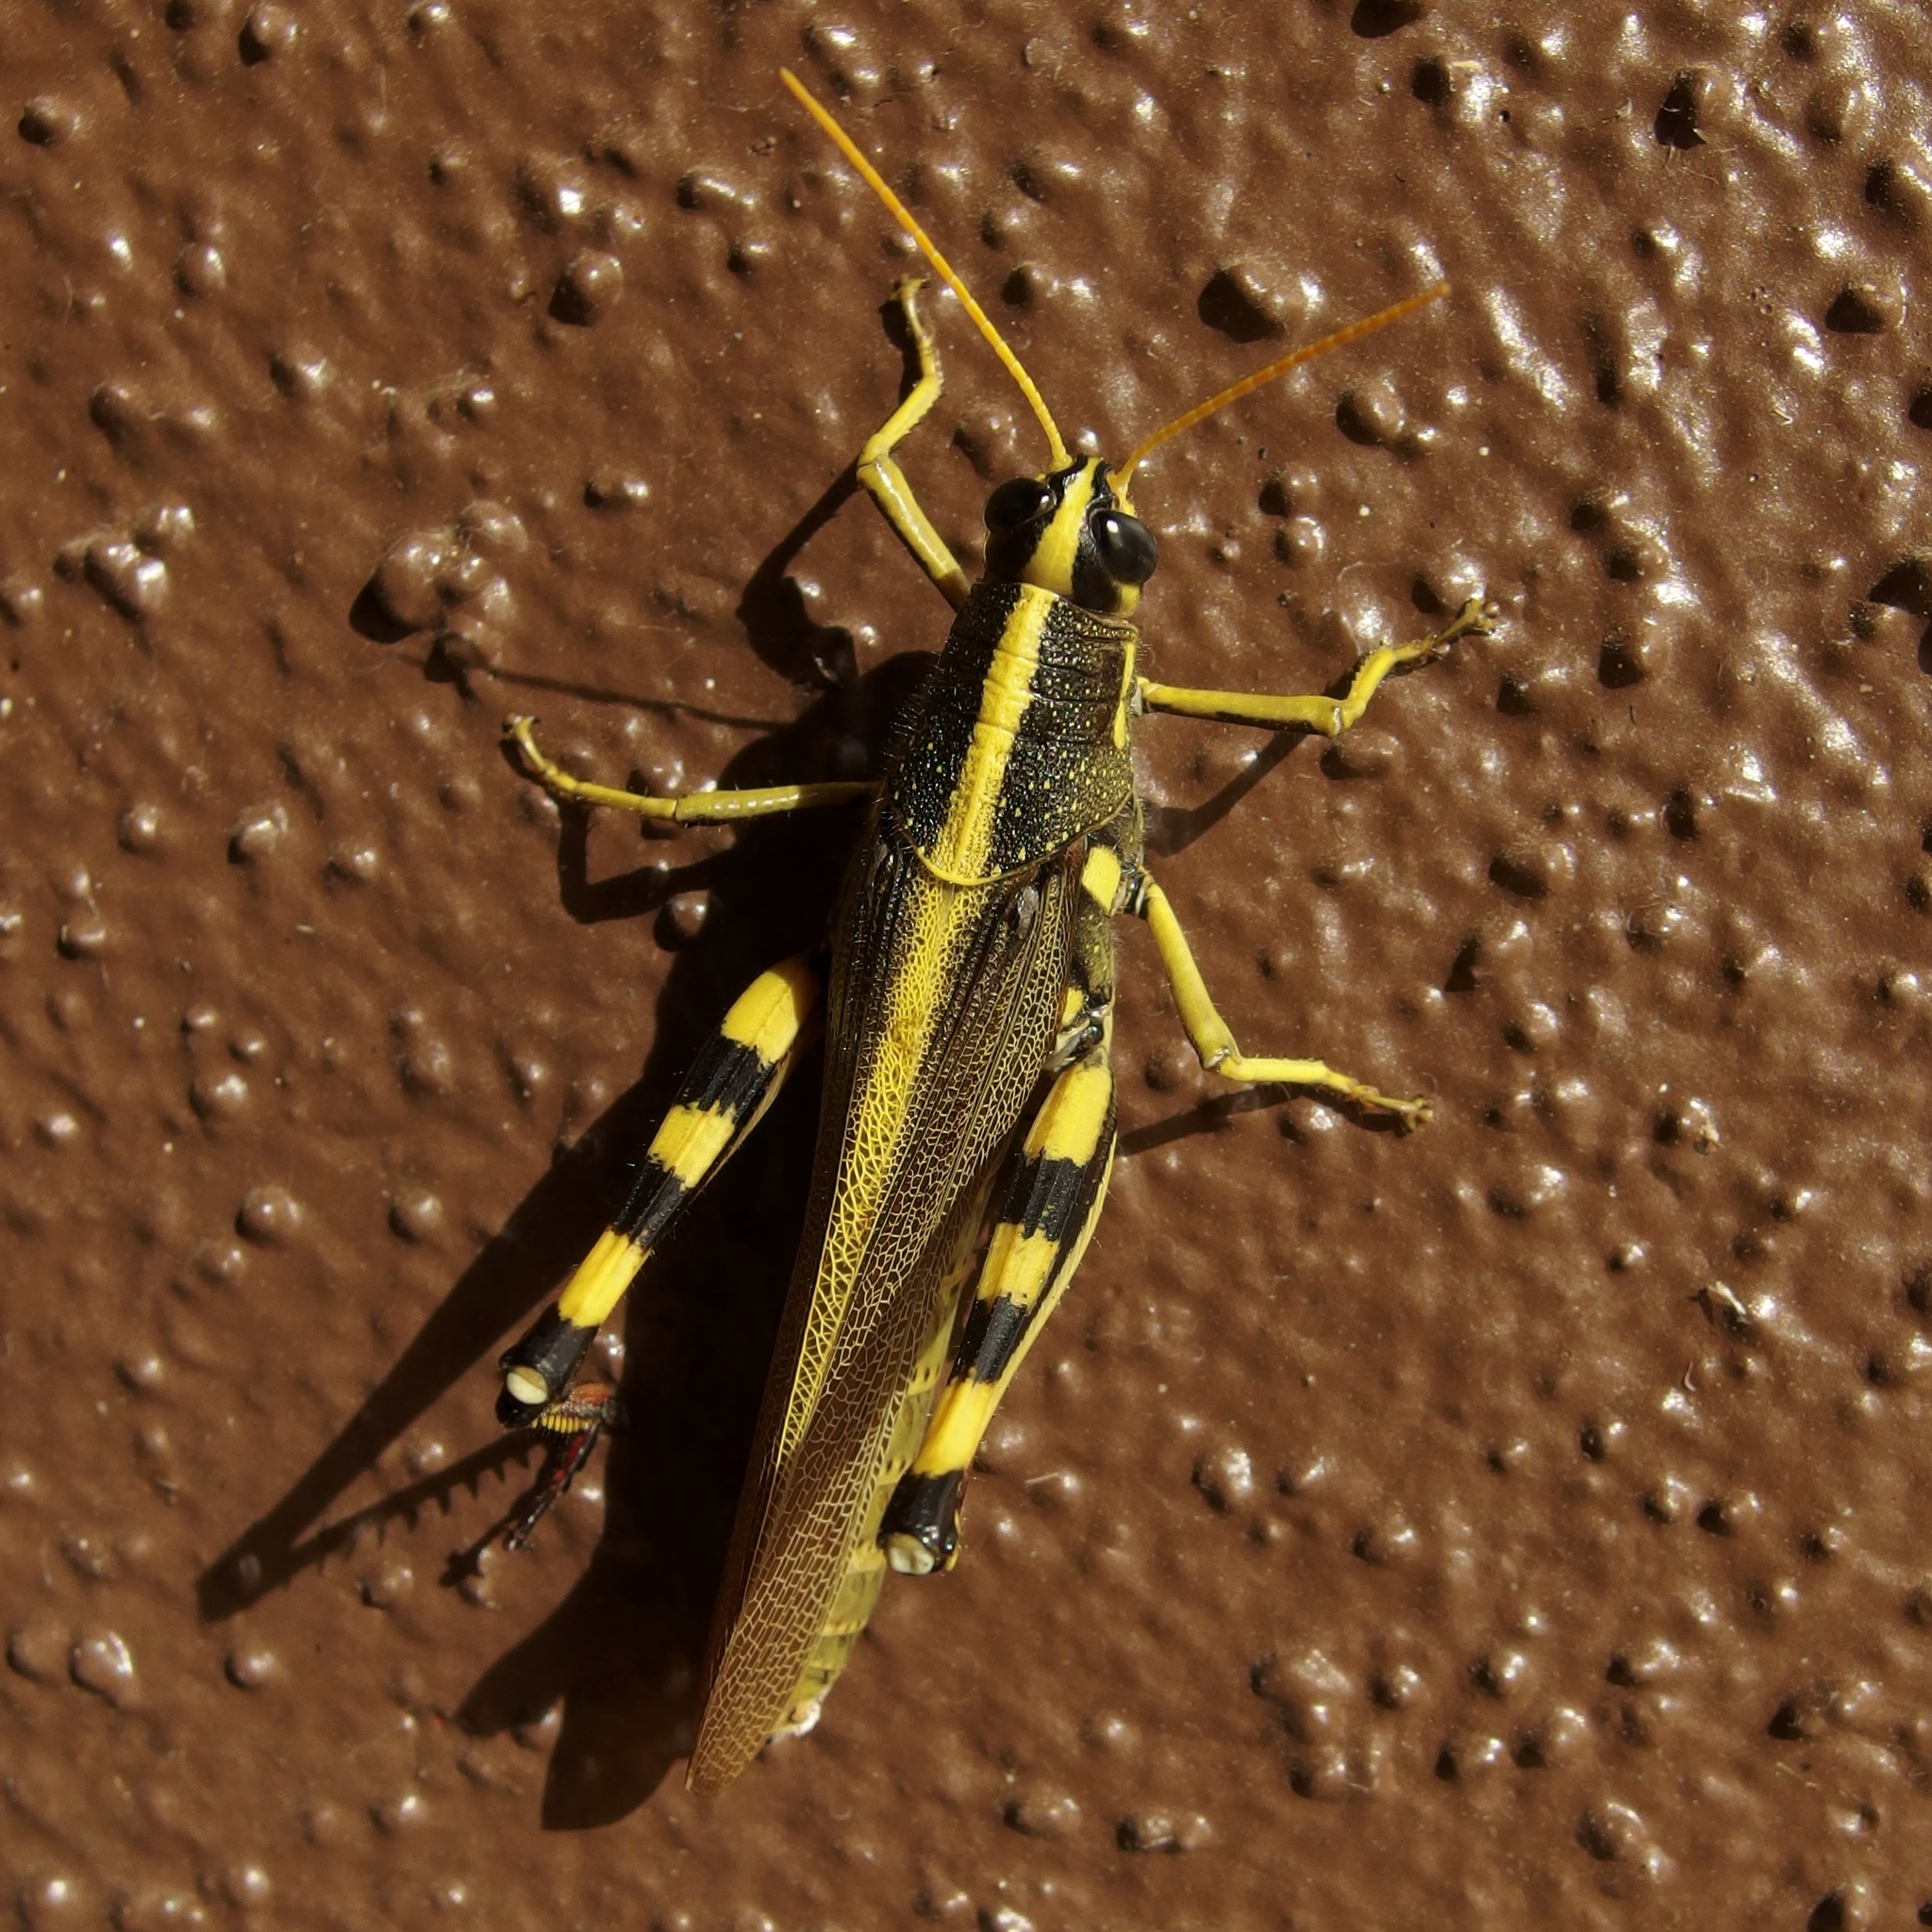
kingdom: Animalia
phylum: Arthropoda
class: Insecta
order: Orthoptera
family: Acrididae
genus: Schistocerca
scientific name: Schistocerca albolineata
